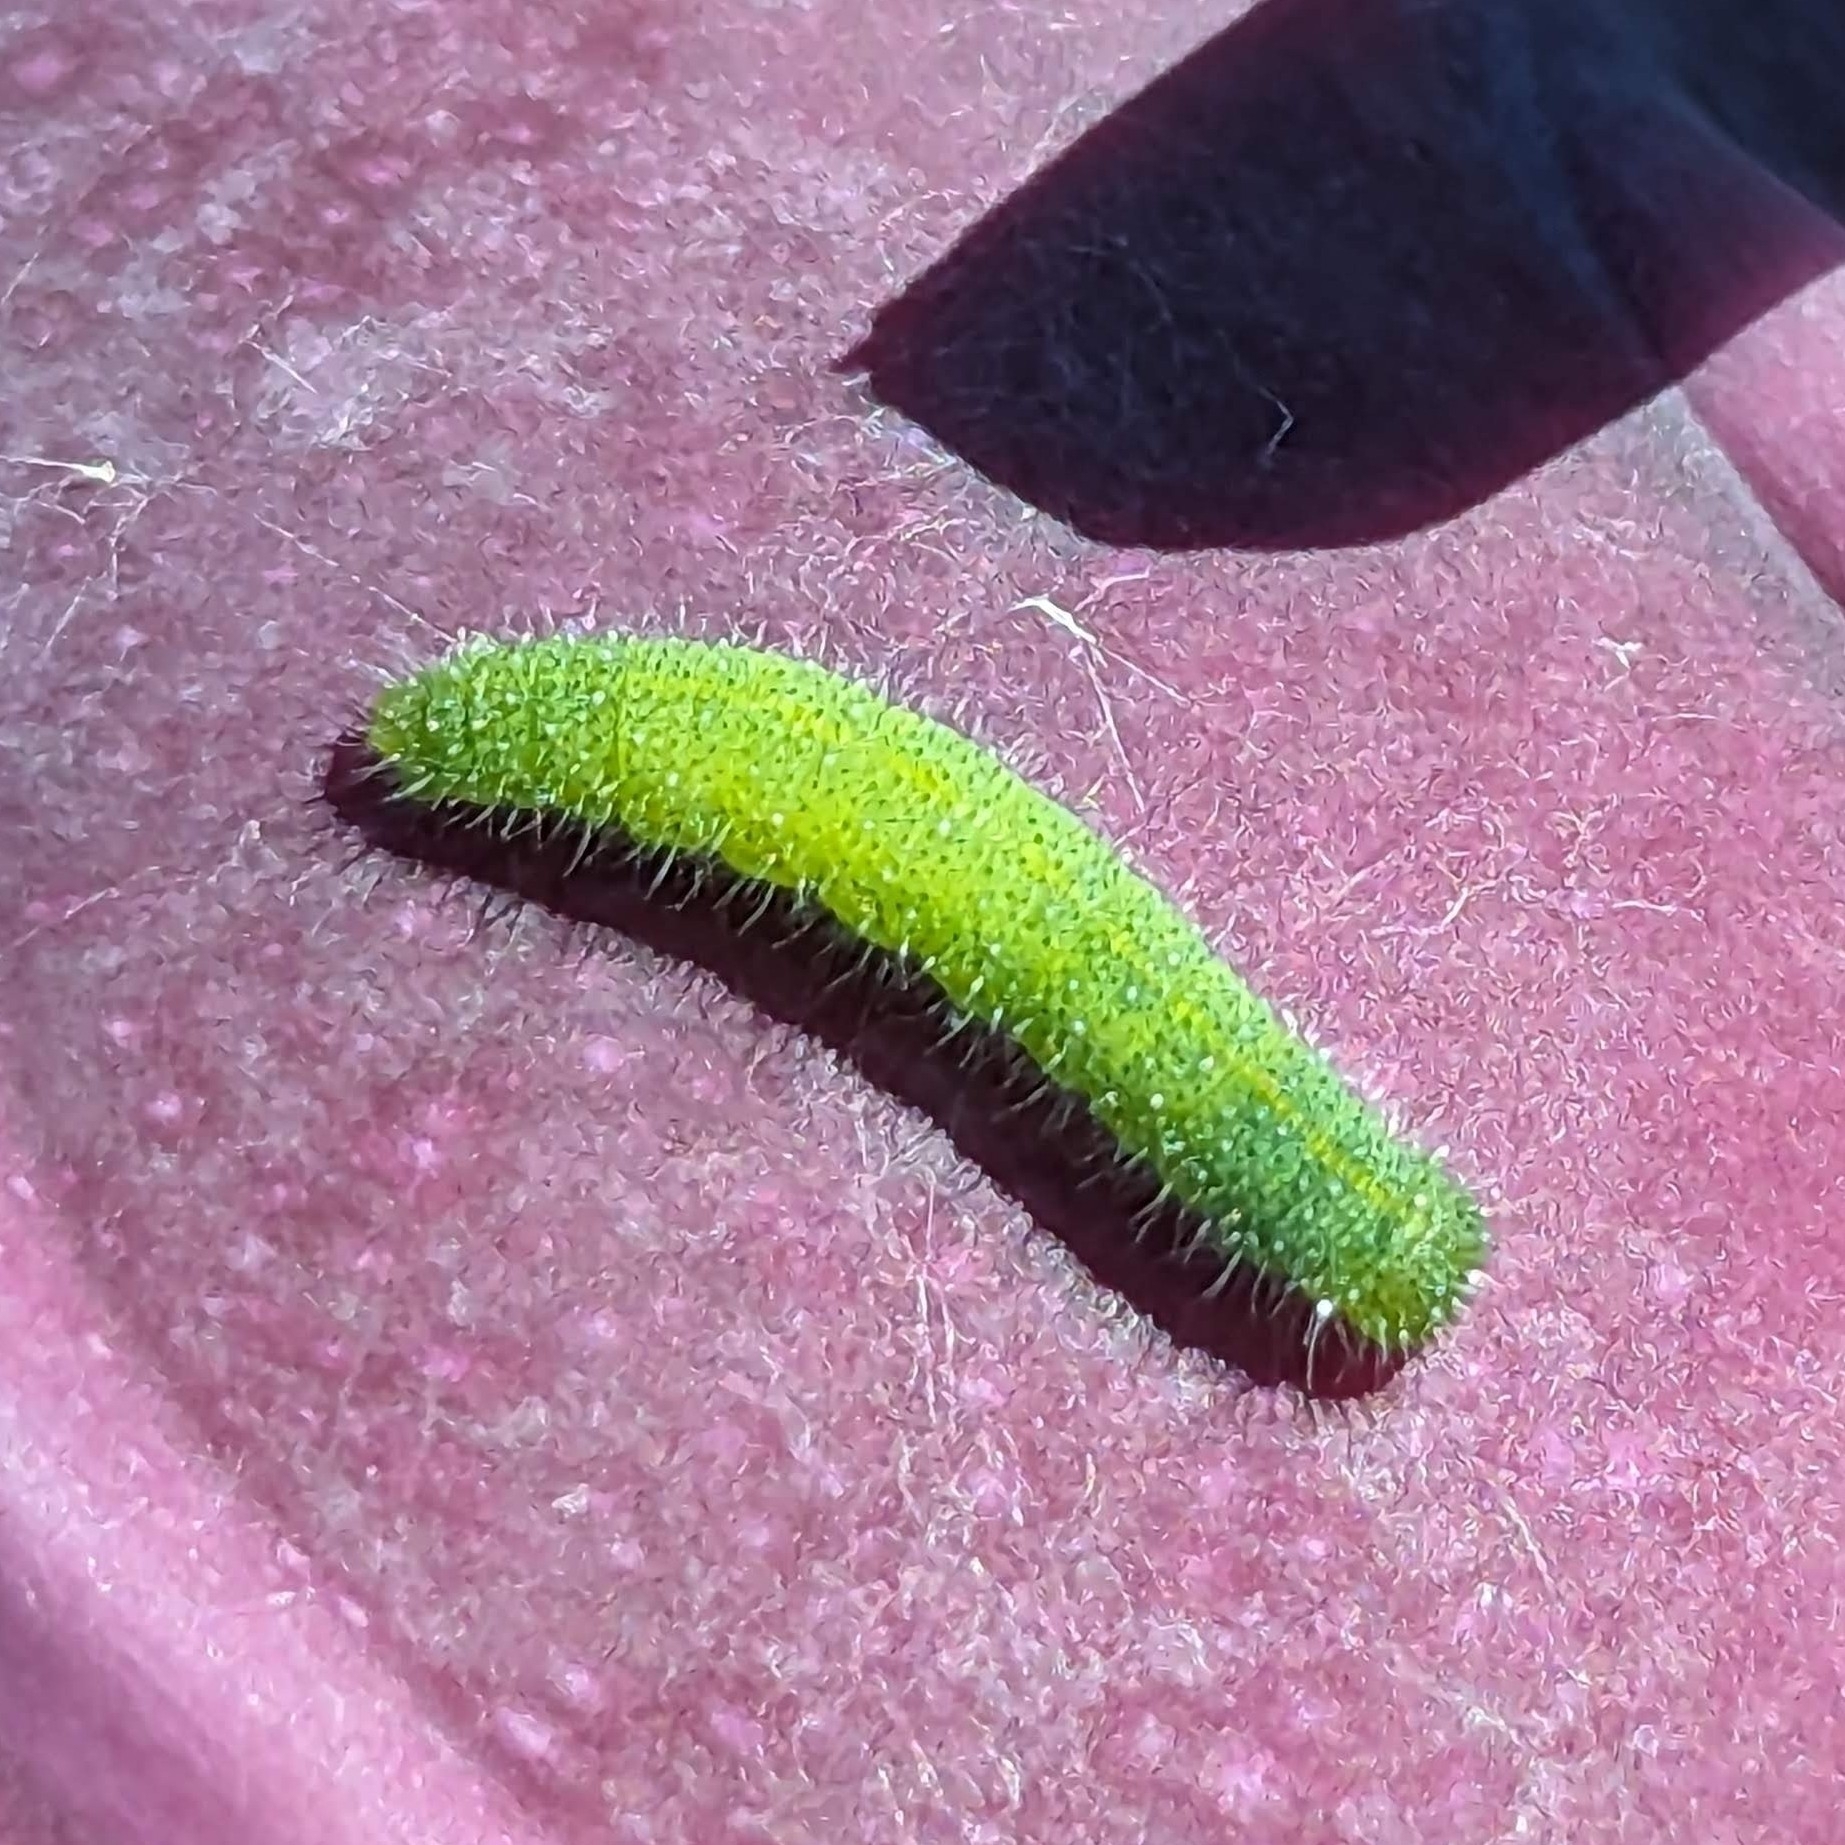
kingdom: Animalia
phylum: Arthropoda
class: Insecta
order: Lepidoptera
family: Pieridae
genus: Pieris
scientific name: Pieris rapae
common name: Small white
